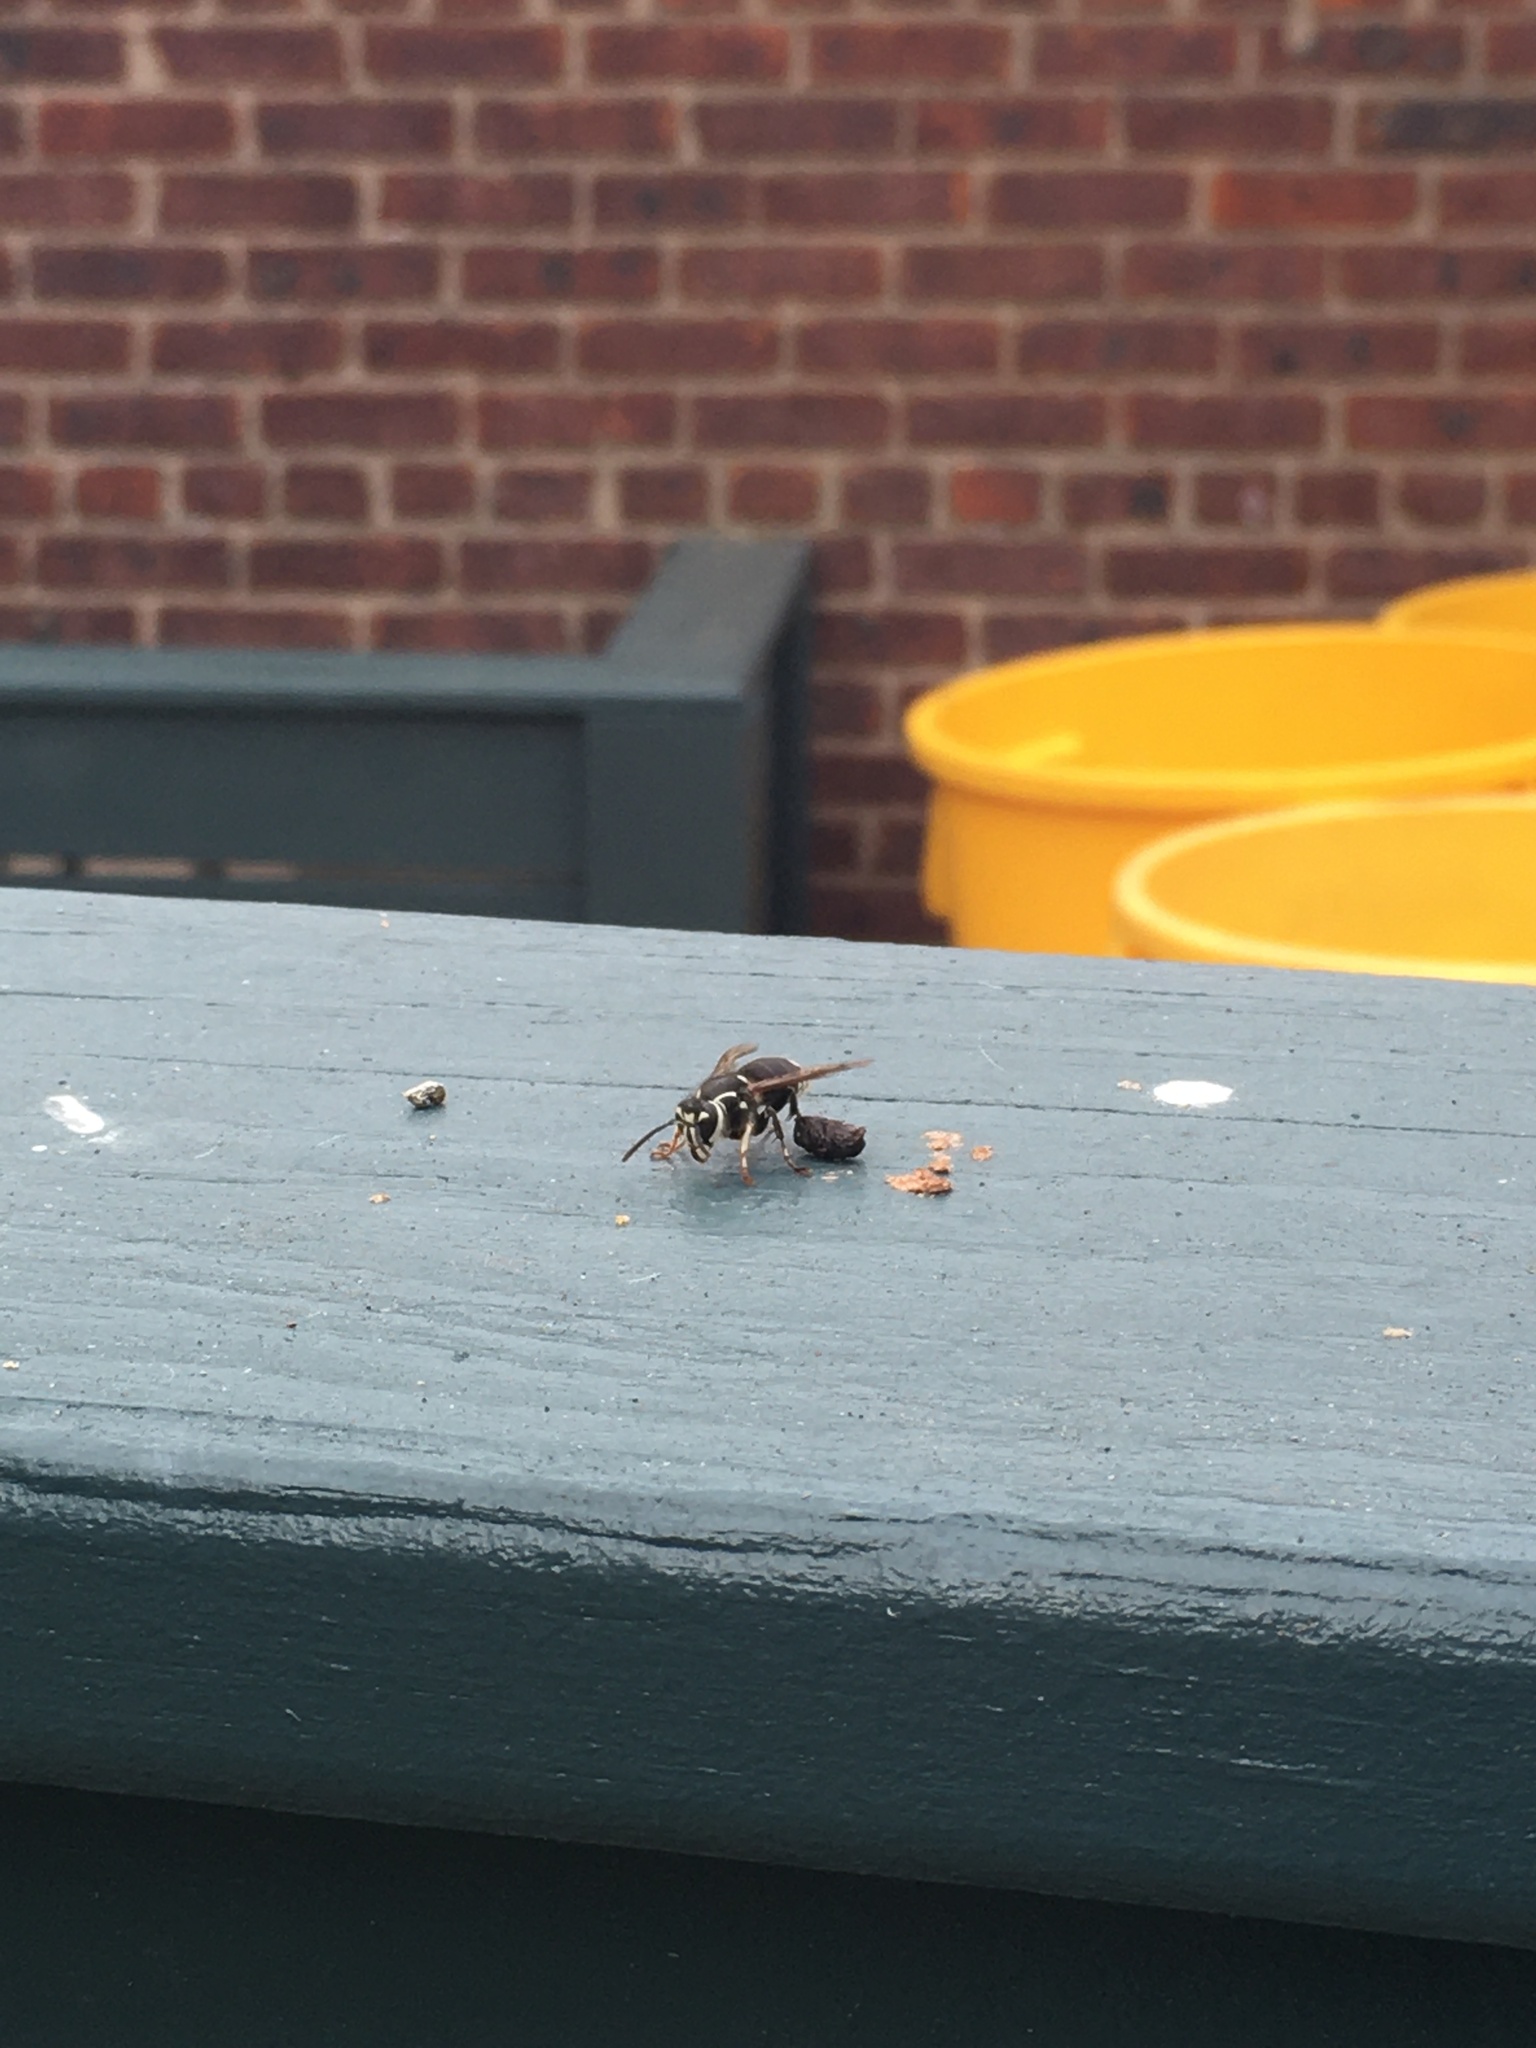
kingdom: Animalia
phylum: Arthropoda
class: Insecta
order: Hymenoptera
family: Vespidae
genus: Dolichovespula
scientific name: Dolichovespula maculata
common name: Bald-faced hornet
